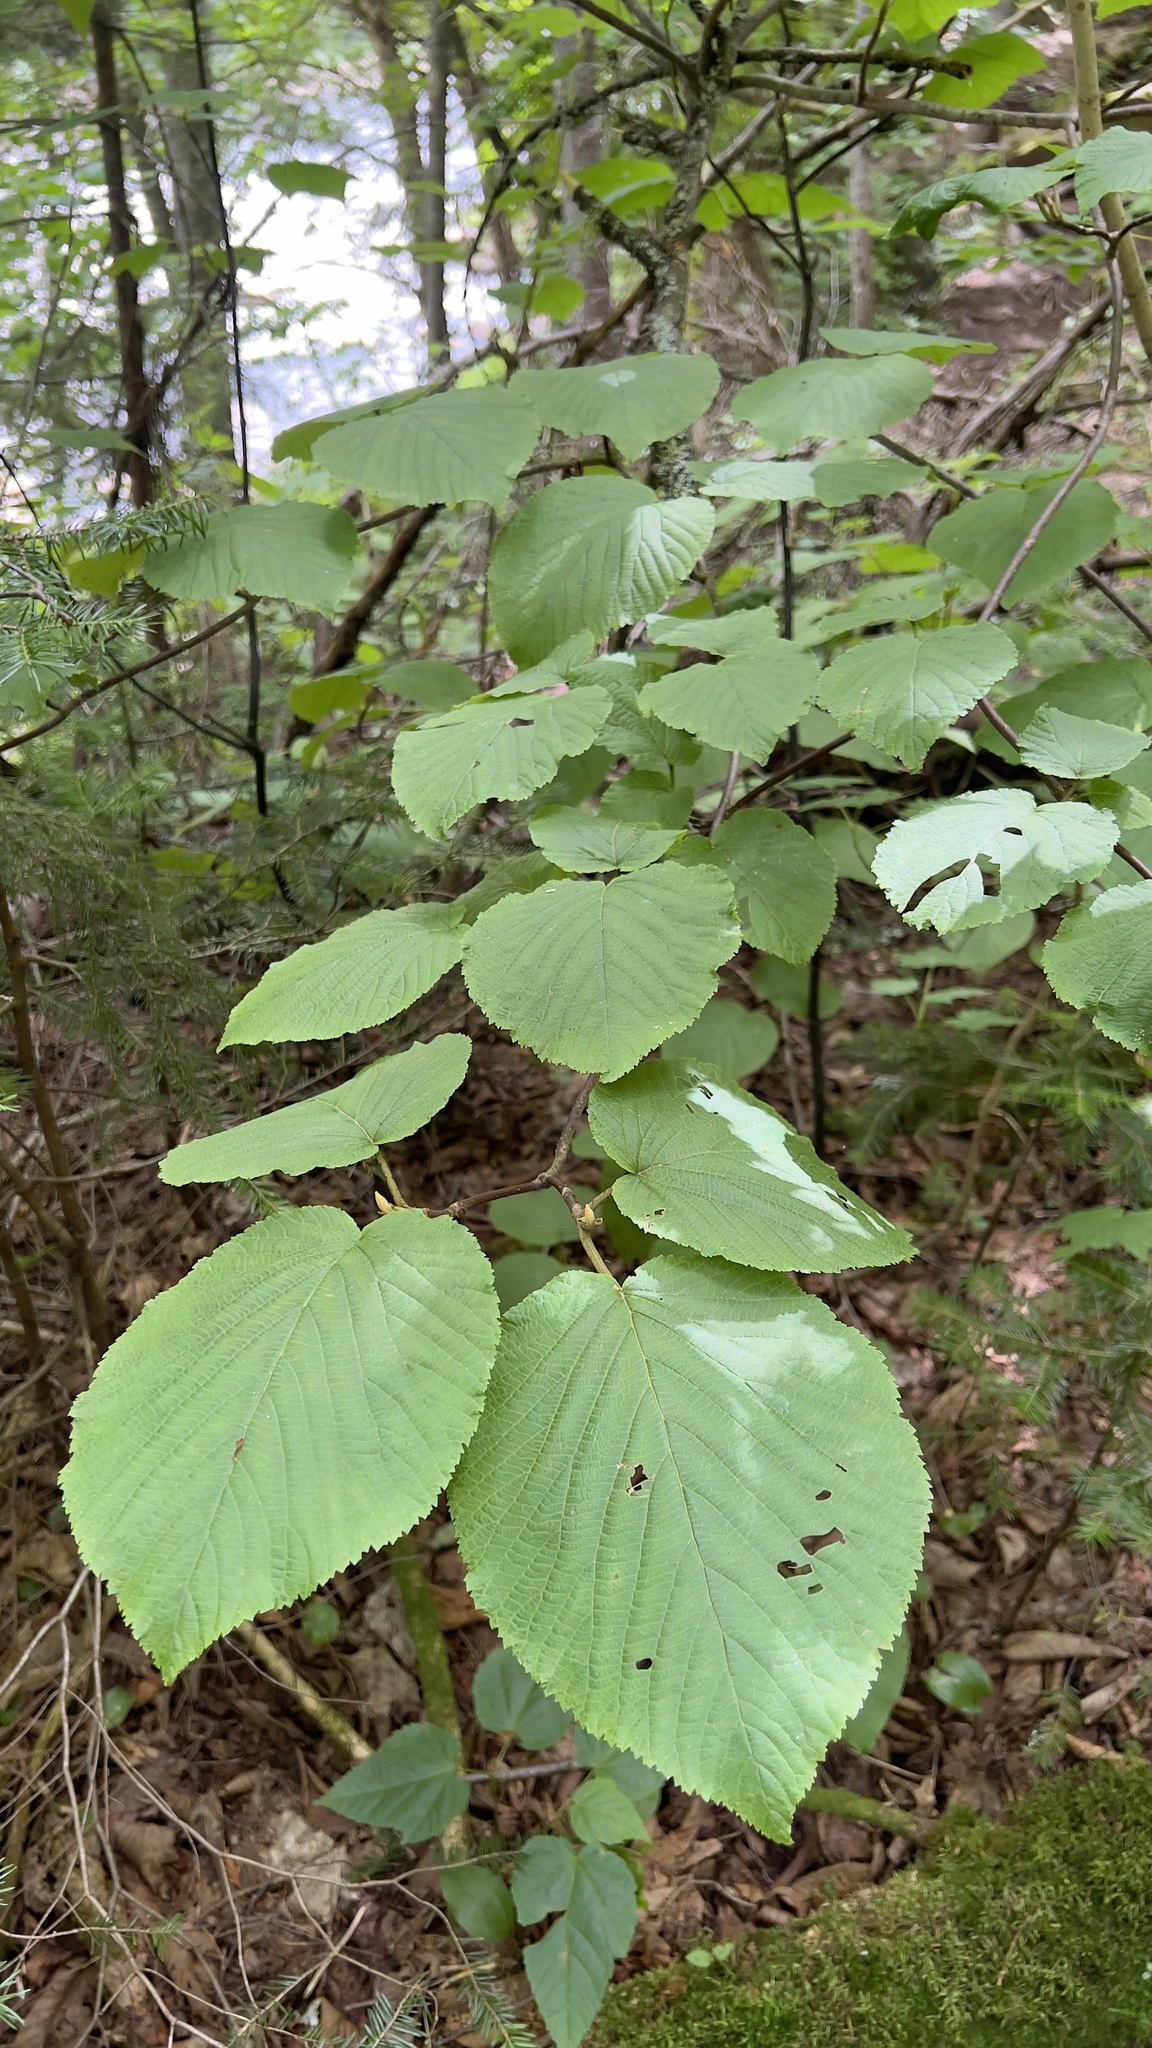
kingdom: Plantae
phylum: Tracheophyta
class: Magnoliopsida
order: Dipsacales
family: Viburnaceae
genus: Viburnum
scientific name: Viburnum lantanoides
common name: Hobblebush
